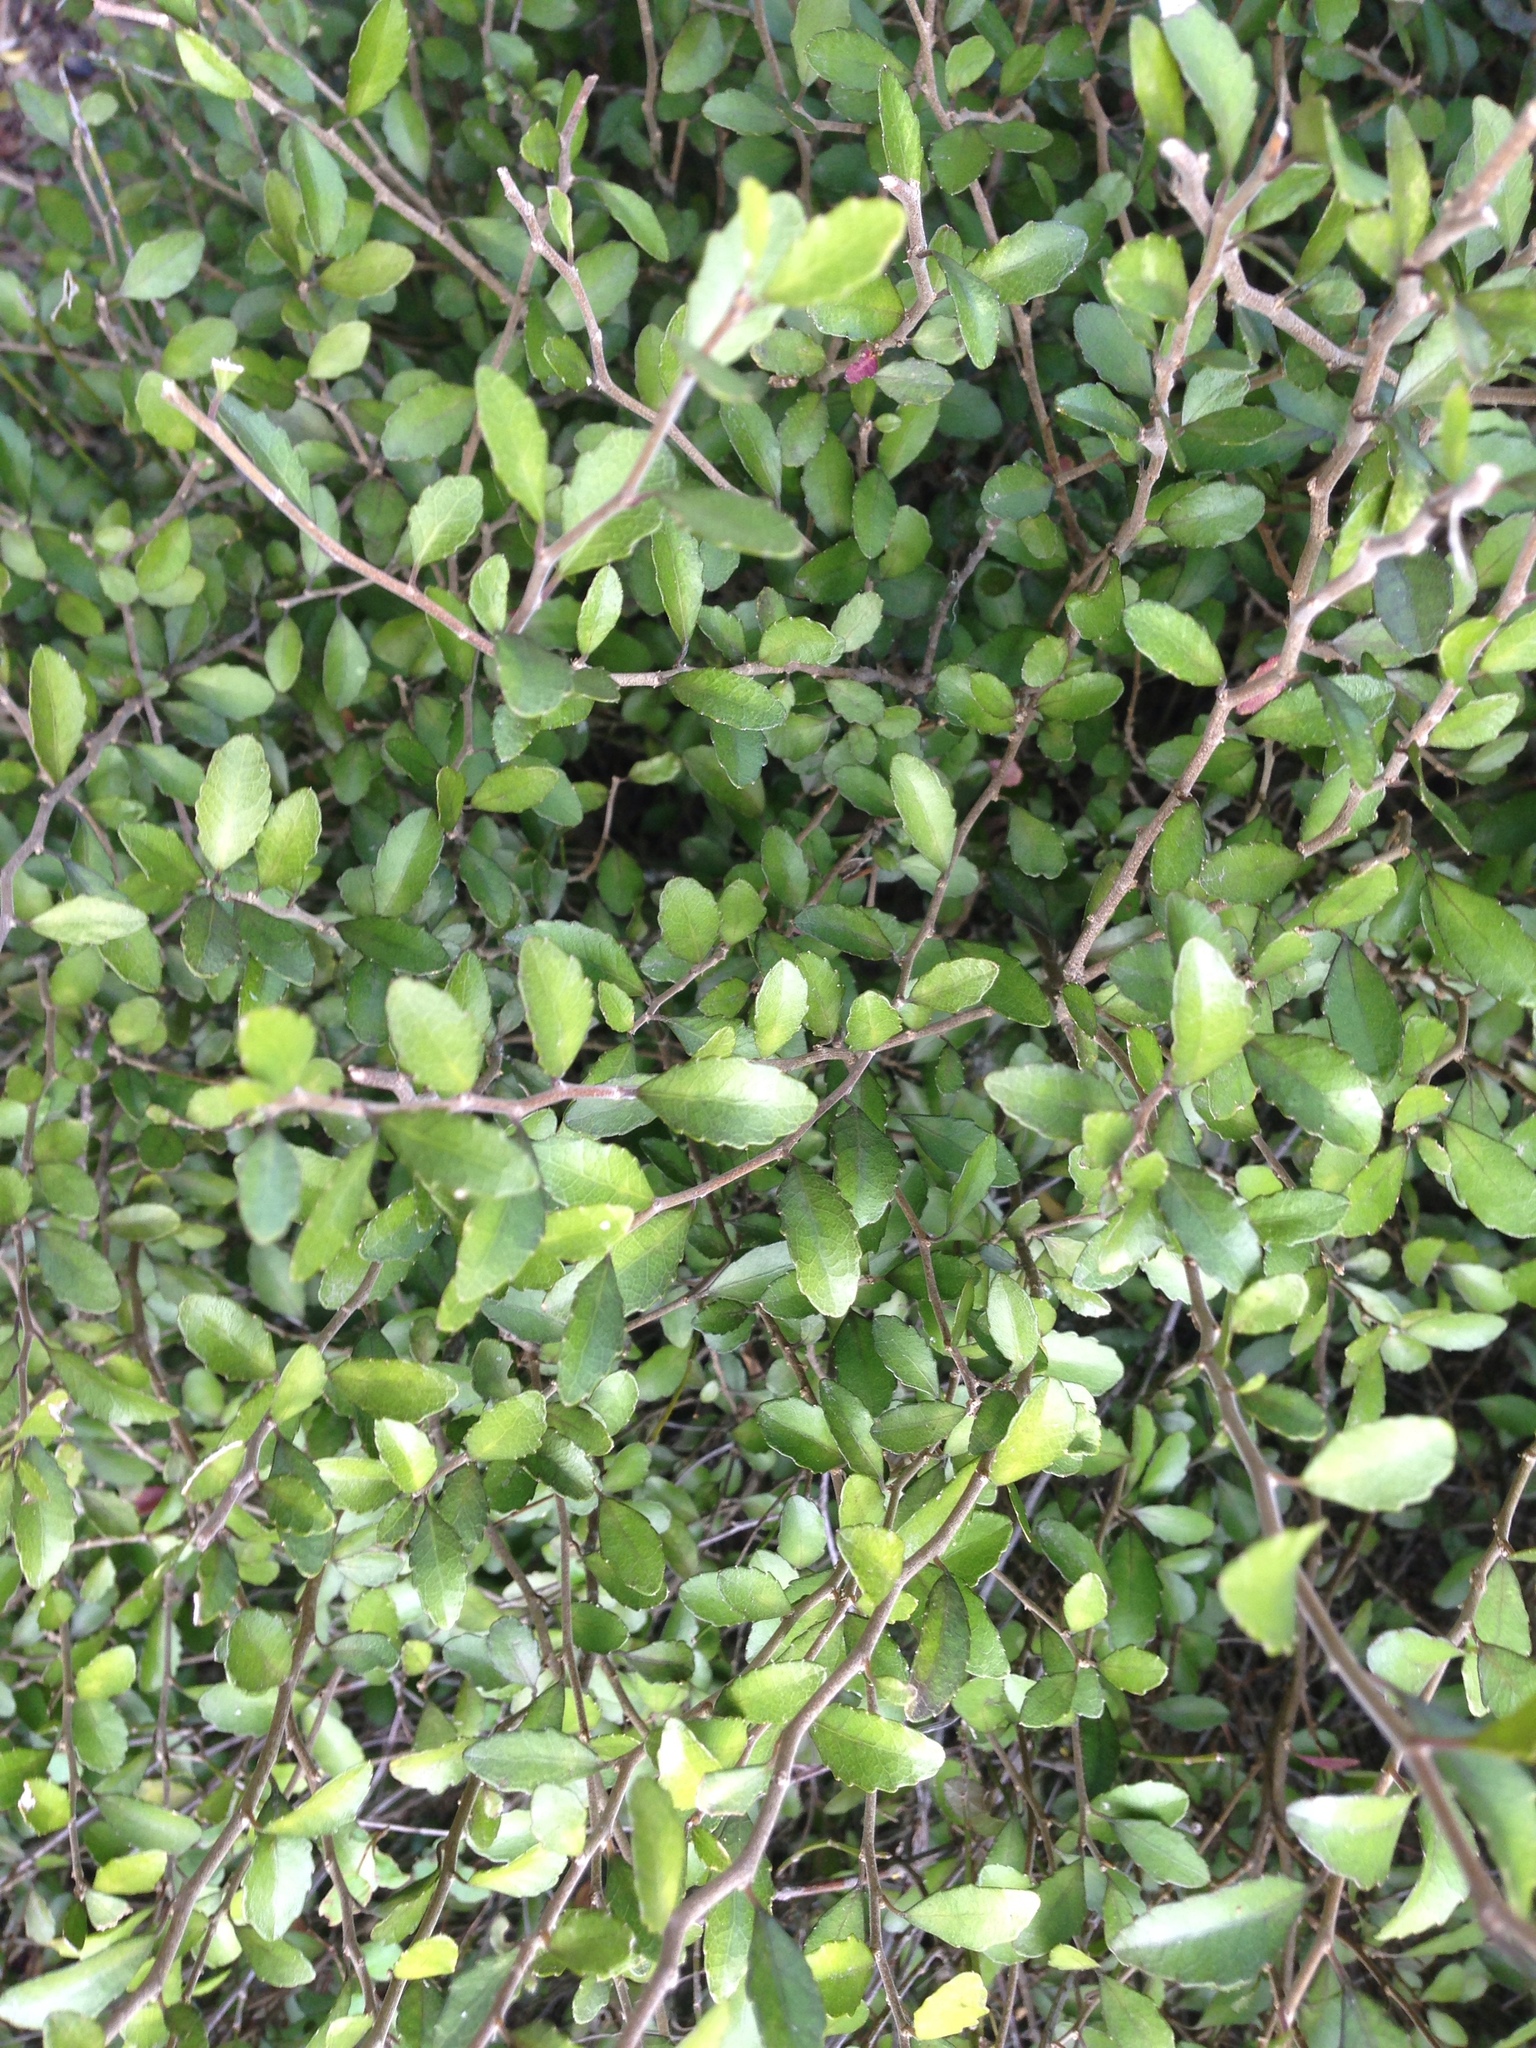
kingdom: Plantae
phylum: Tracheophyta
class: Magnoliopsida
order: Rosales
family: Moraceae
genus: Paratrophis
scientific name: Paratrophis microphylla
